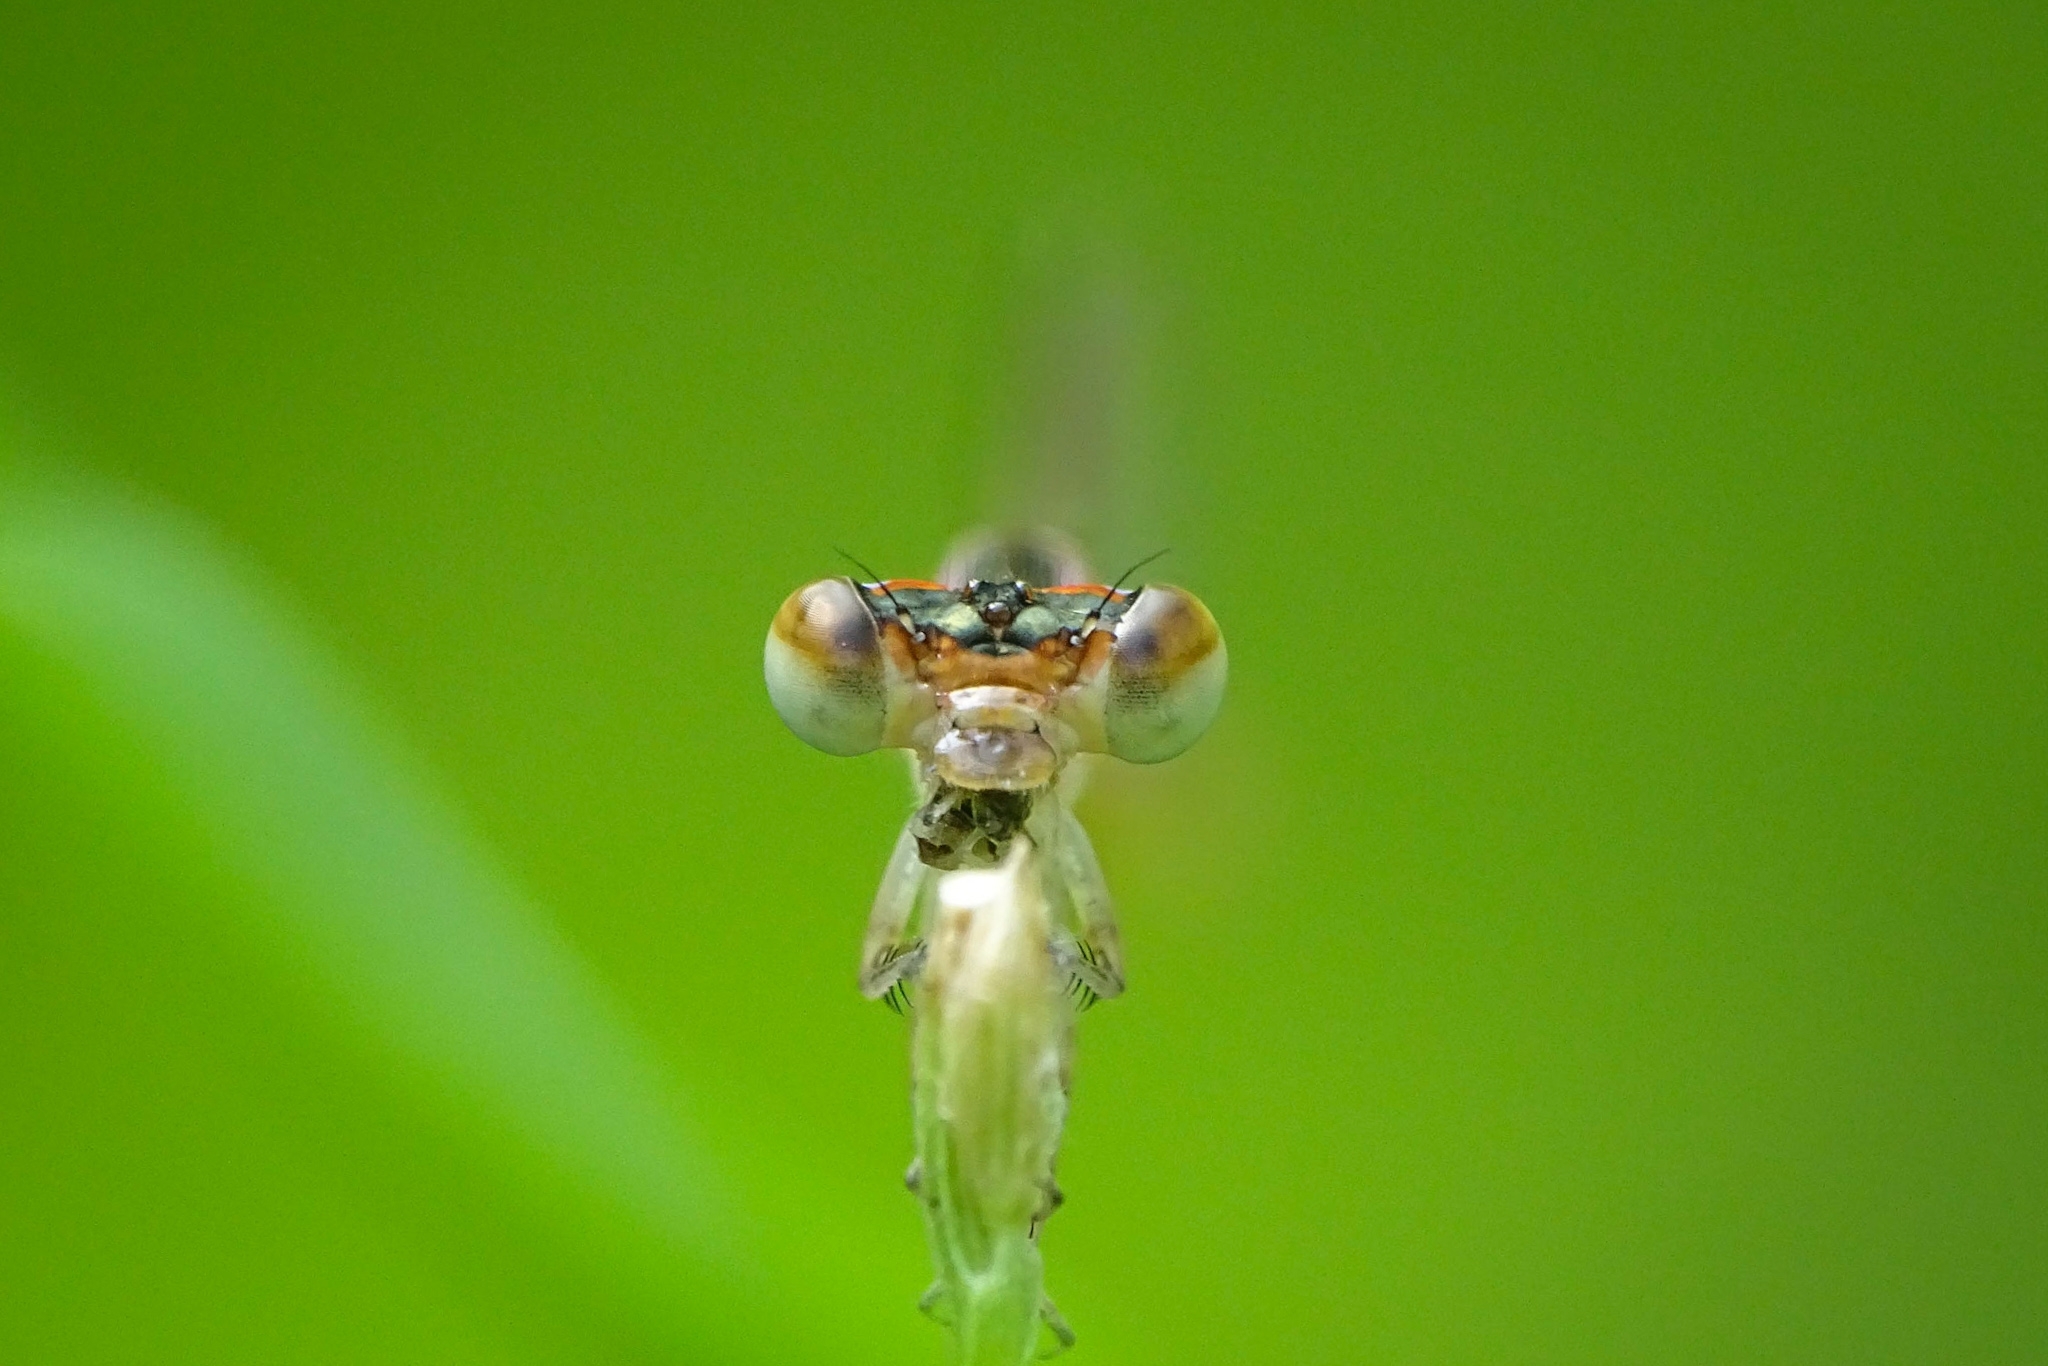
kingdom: Animalia
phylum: Arthropoda
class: Insecta
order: Odonata
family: Coenagrionidae
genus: Agriocnemis
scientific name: Agriocnemis pygmaea
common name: Pygmy wisp
